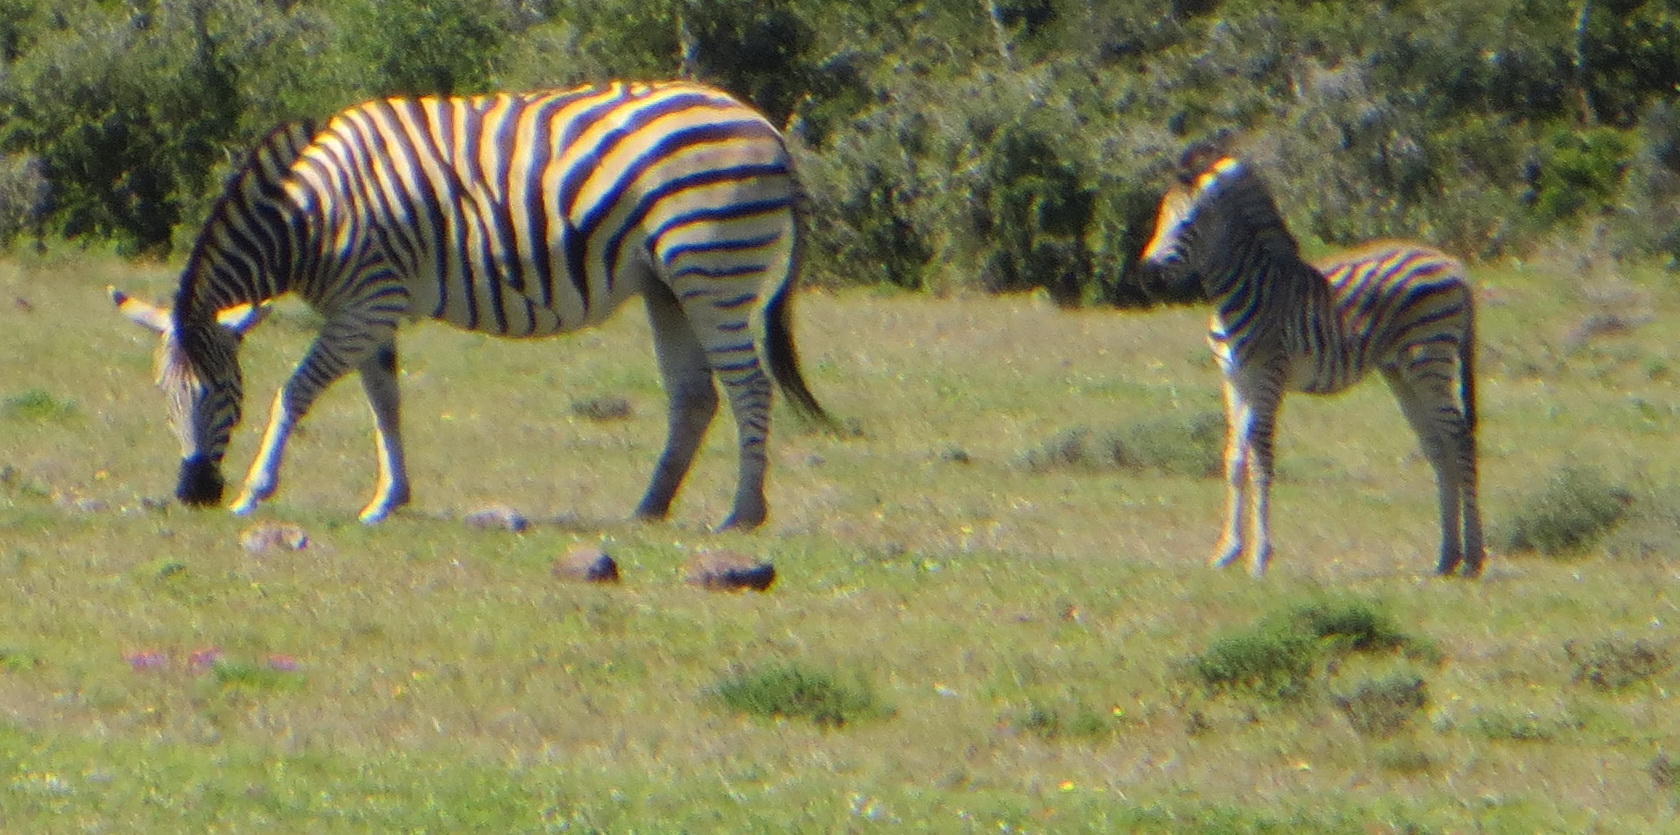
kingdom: Animalia
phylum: Chordata
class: Mammalia
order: Perissodactyla
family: Equidae
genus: Equus
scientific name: Equus quagga
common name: Plains zebra
